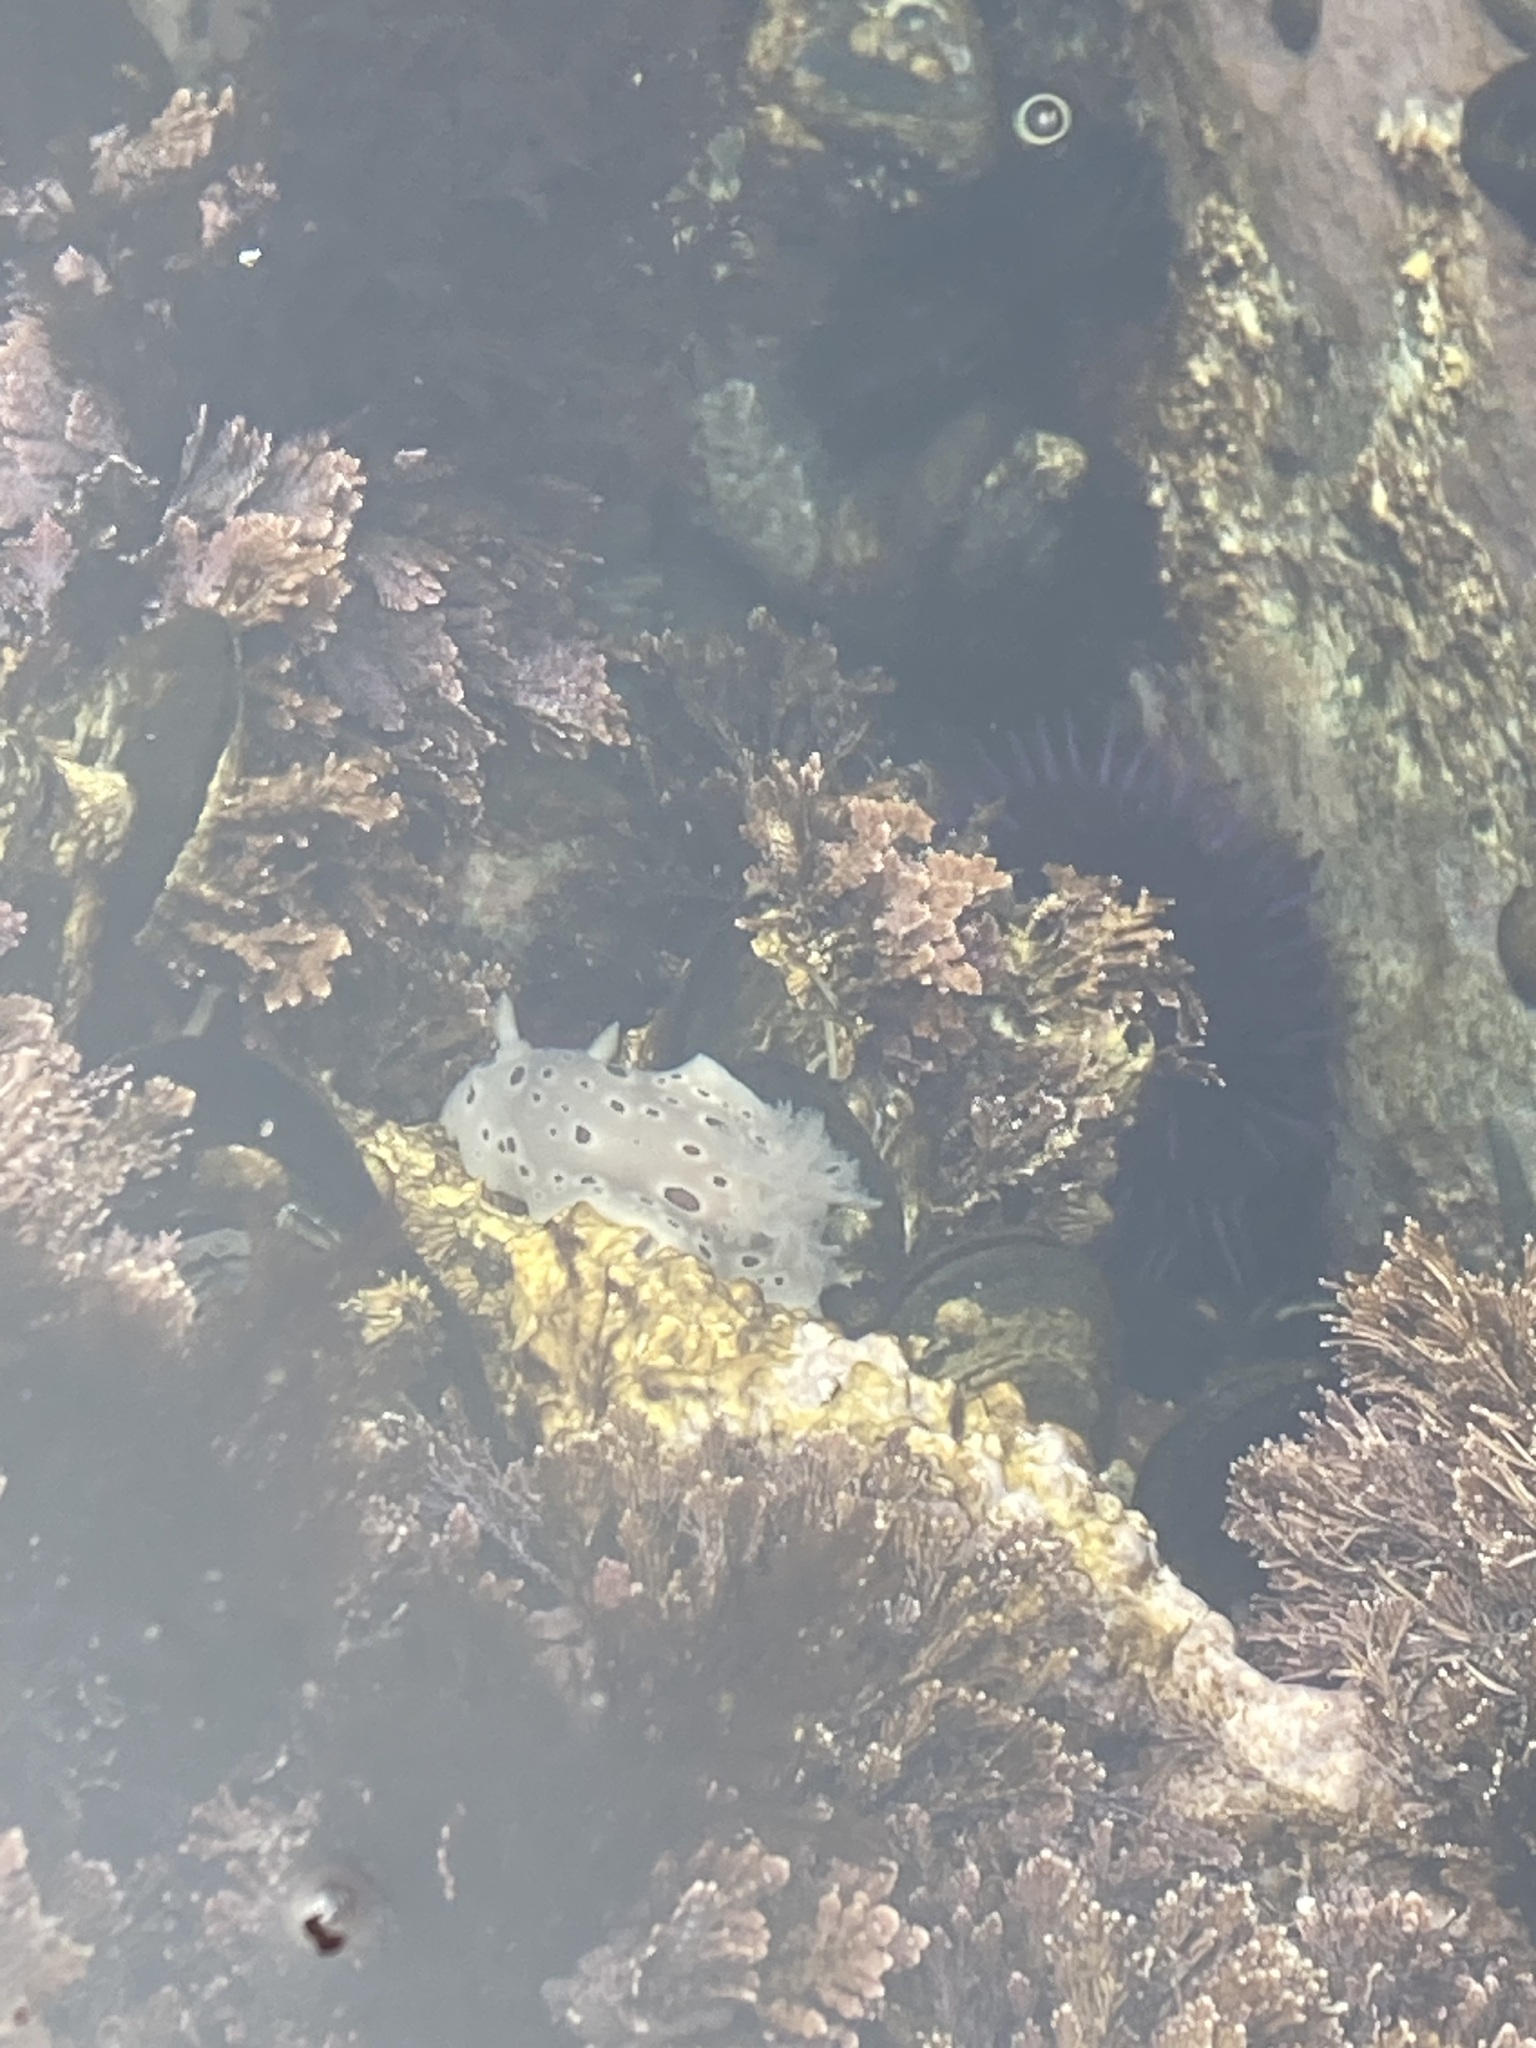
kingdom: Animalia
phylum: Mollusca
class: Gastropoda
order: Nudibranchia
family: Discodorididae
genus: Diaulula
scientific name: Diaulula odonoghuei
